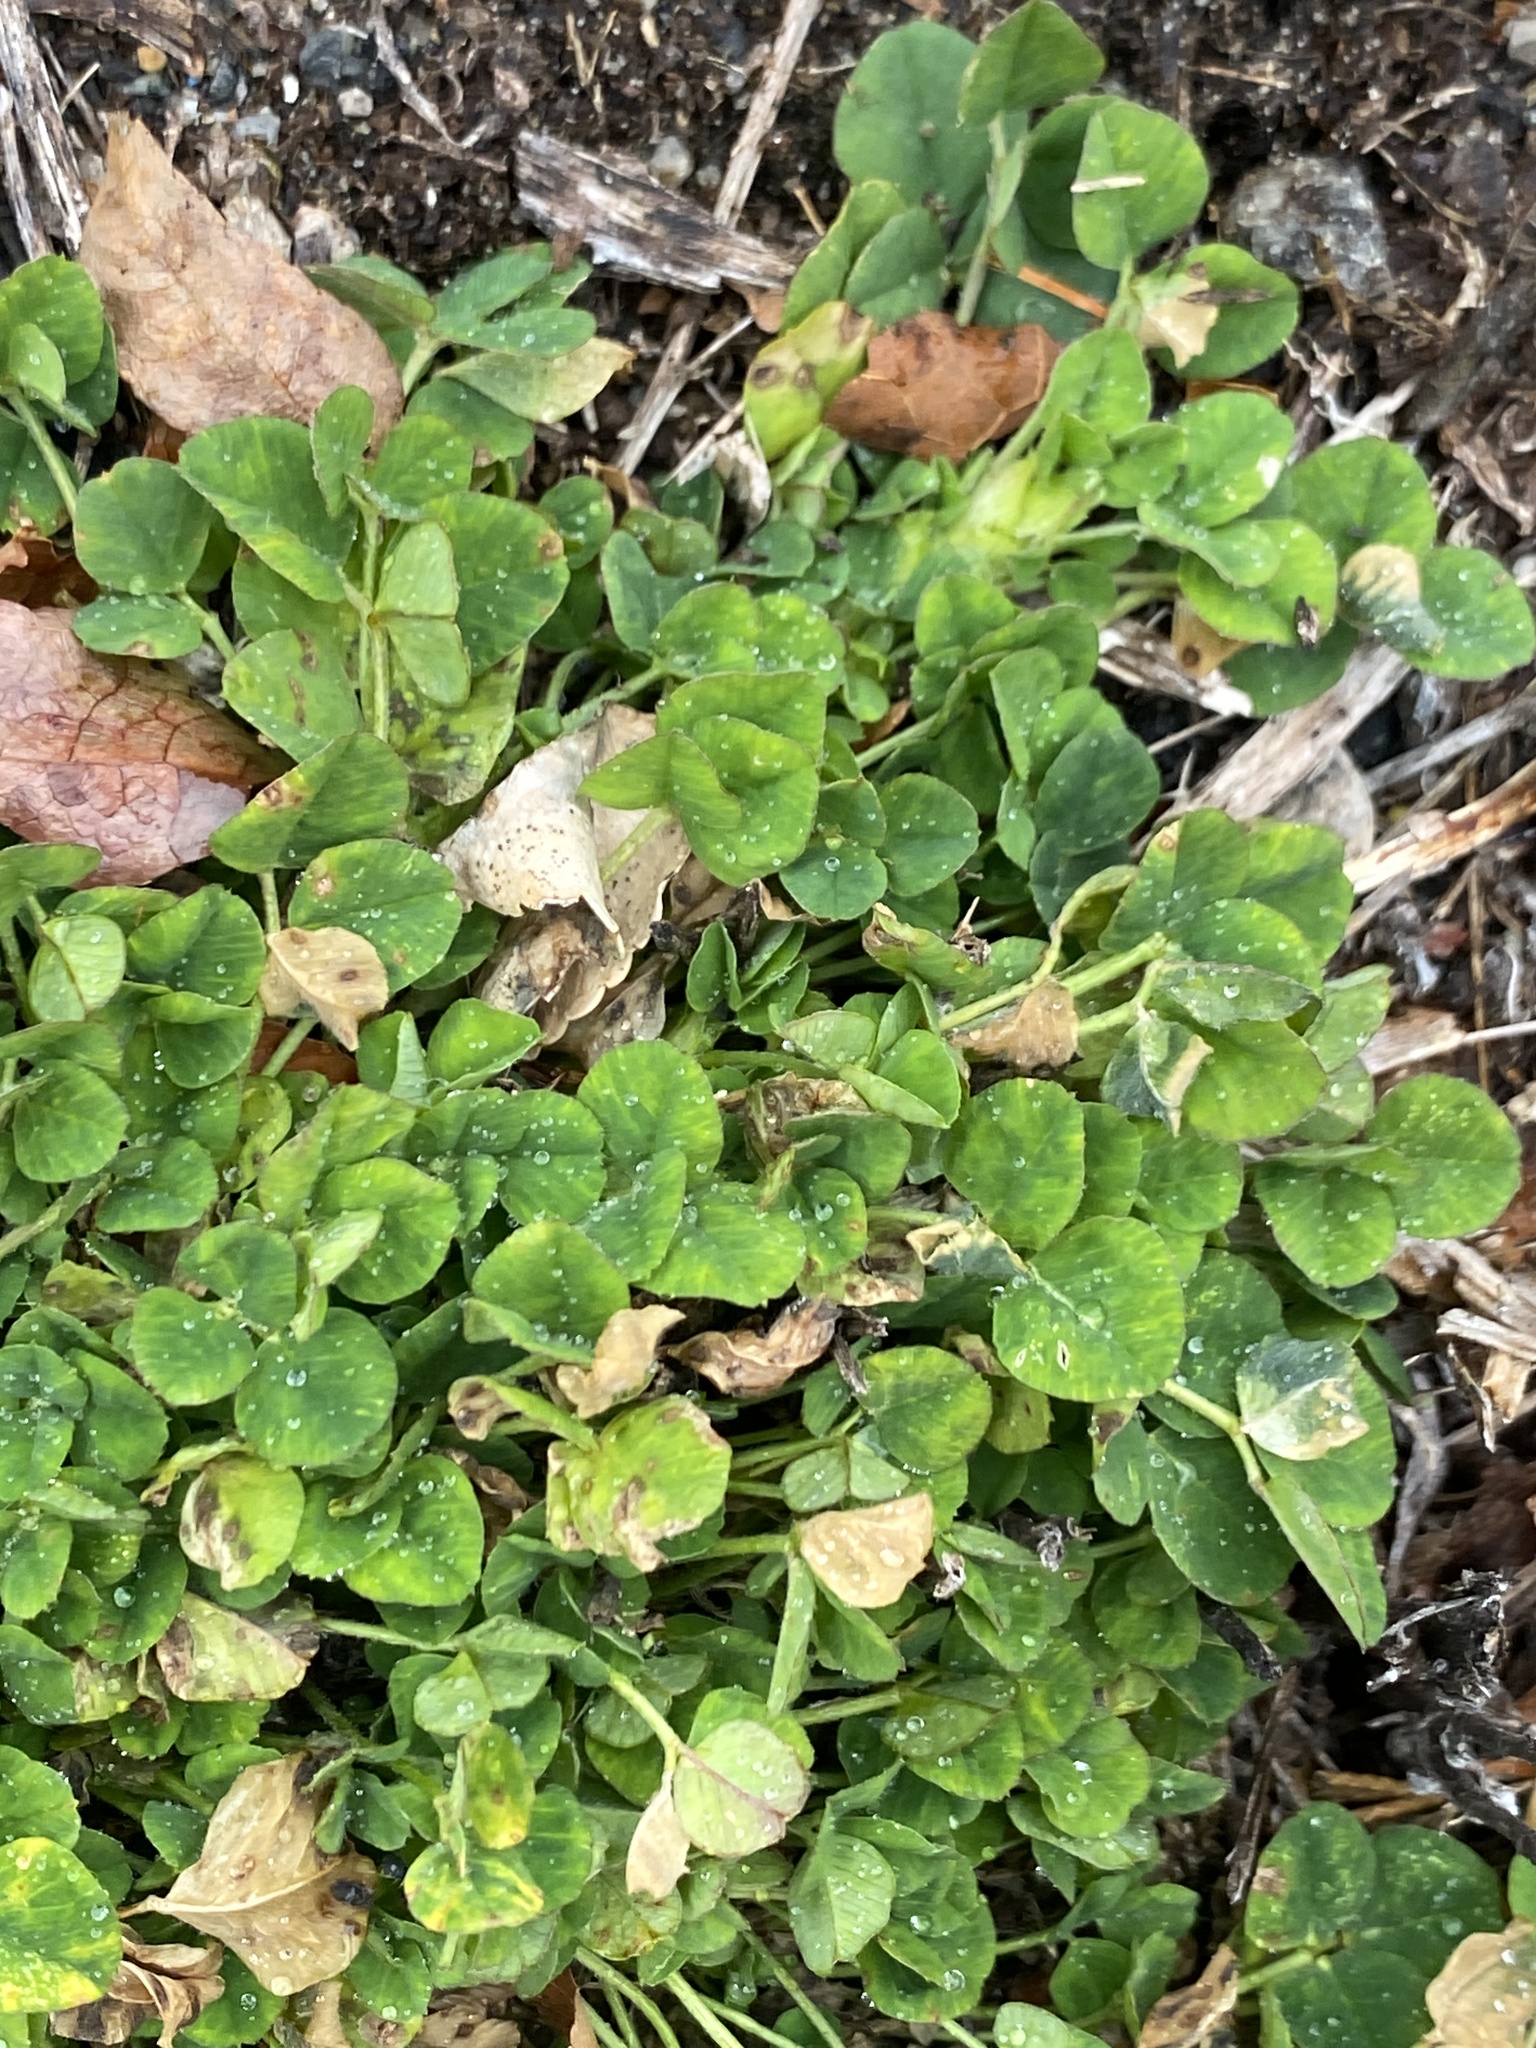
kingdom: Plantae
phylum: Tracheophyta
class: Magnoliopsida
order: Fabales
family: Fabaceae
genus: Medicago
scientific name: Medicago lupulina
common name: Black medick
